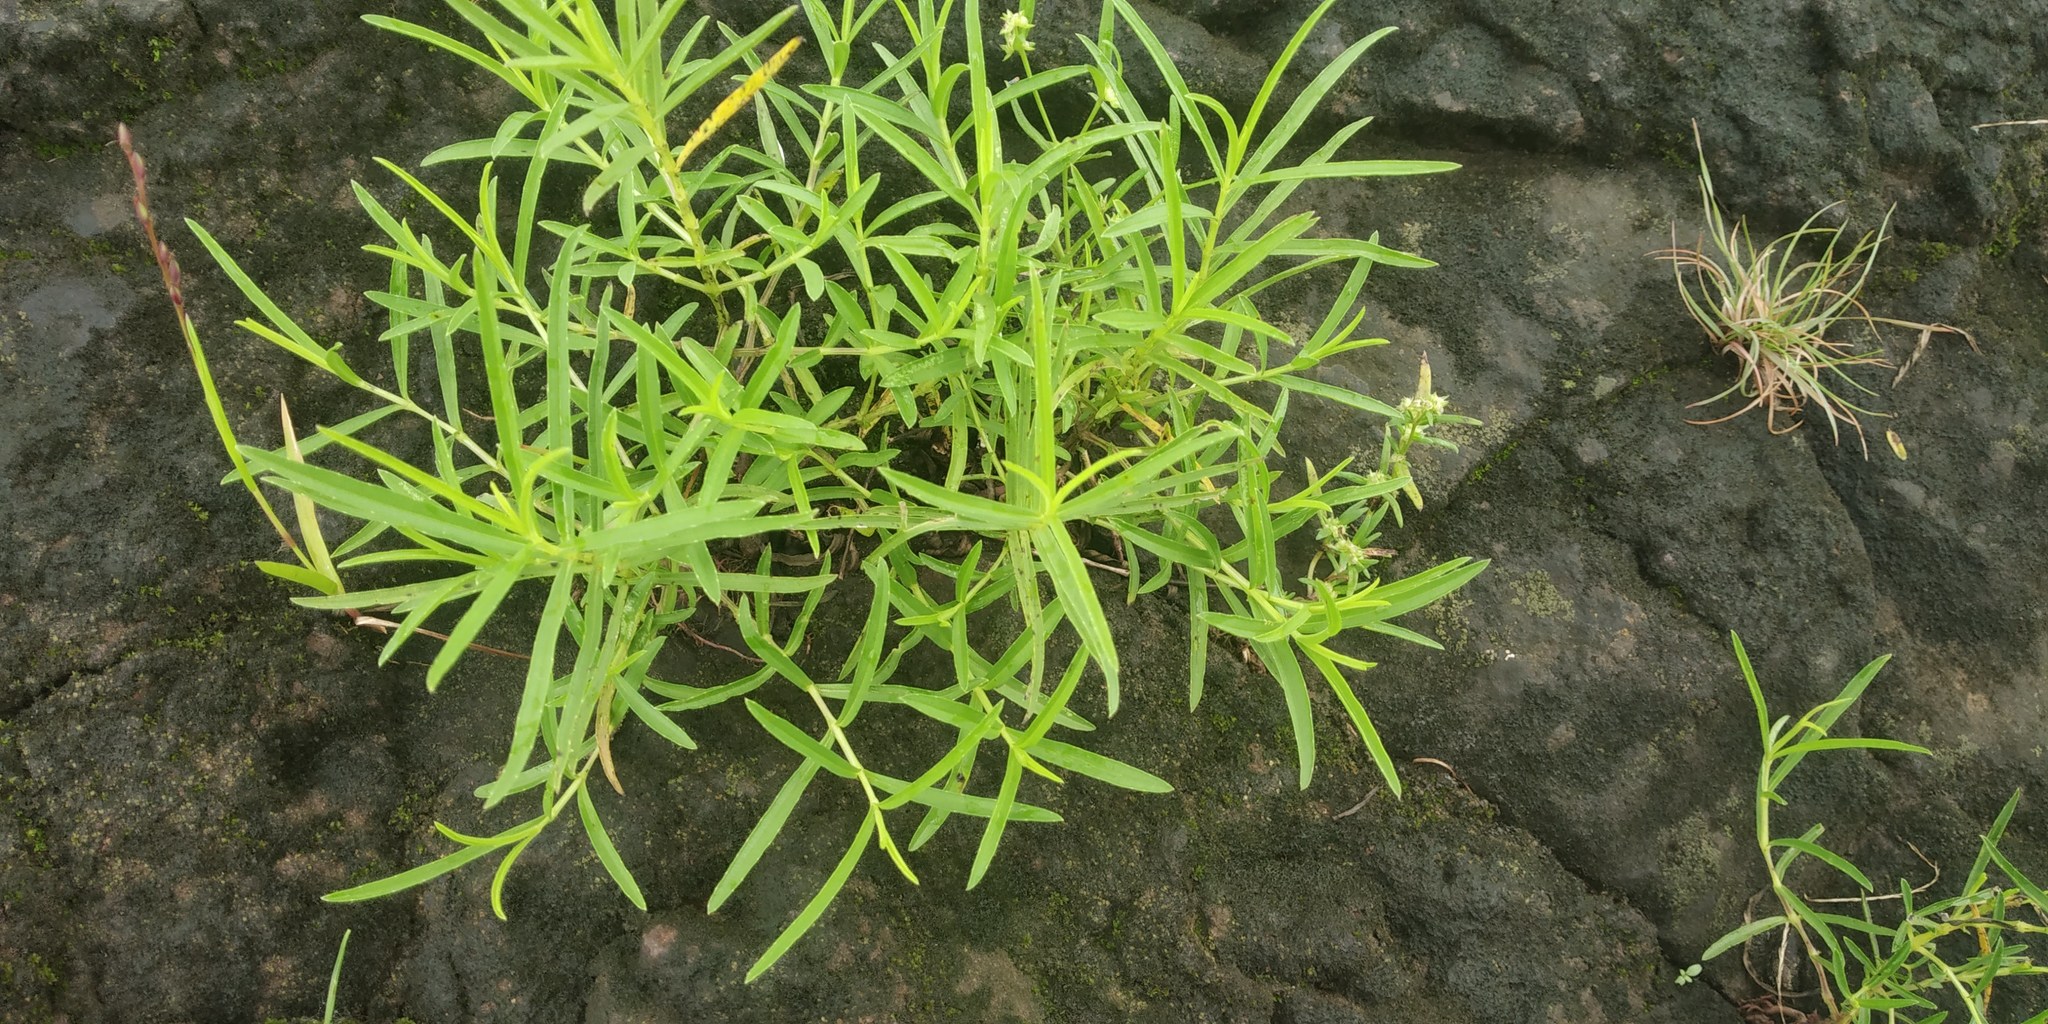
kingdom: Plantae
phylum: Tracheophyta
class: Magnoliopsida
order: Lamiales
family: Acanthaceae
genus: Lepidagathis
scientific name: Lepidagathis trinervis
